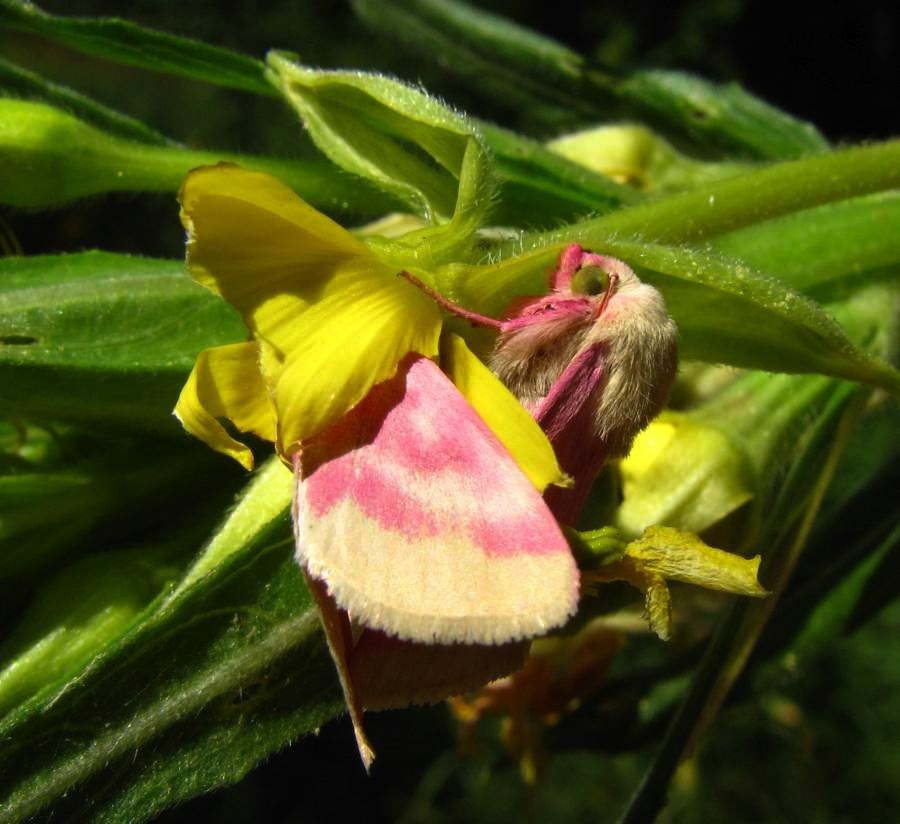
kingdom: Animalia
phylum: Arthropoda
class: Insecta
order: Lepidoptera
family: Noctuidae
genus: Schinia
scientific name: Schinia florida
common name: Primrose moth
